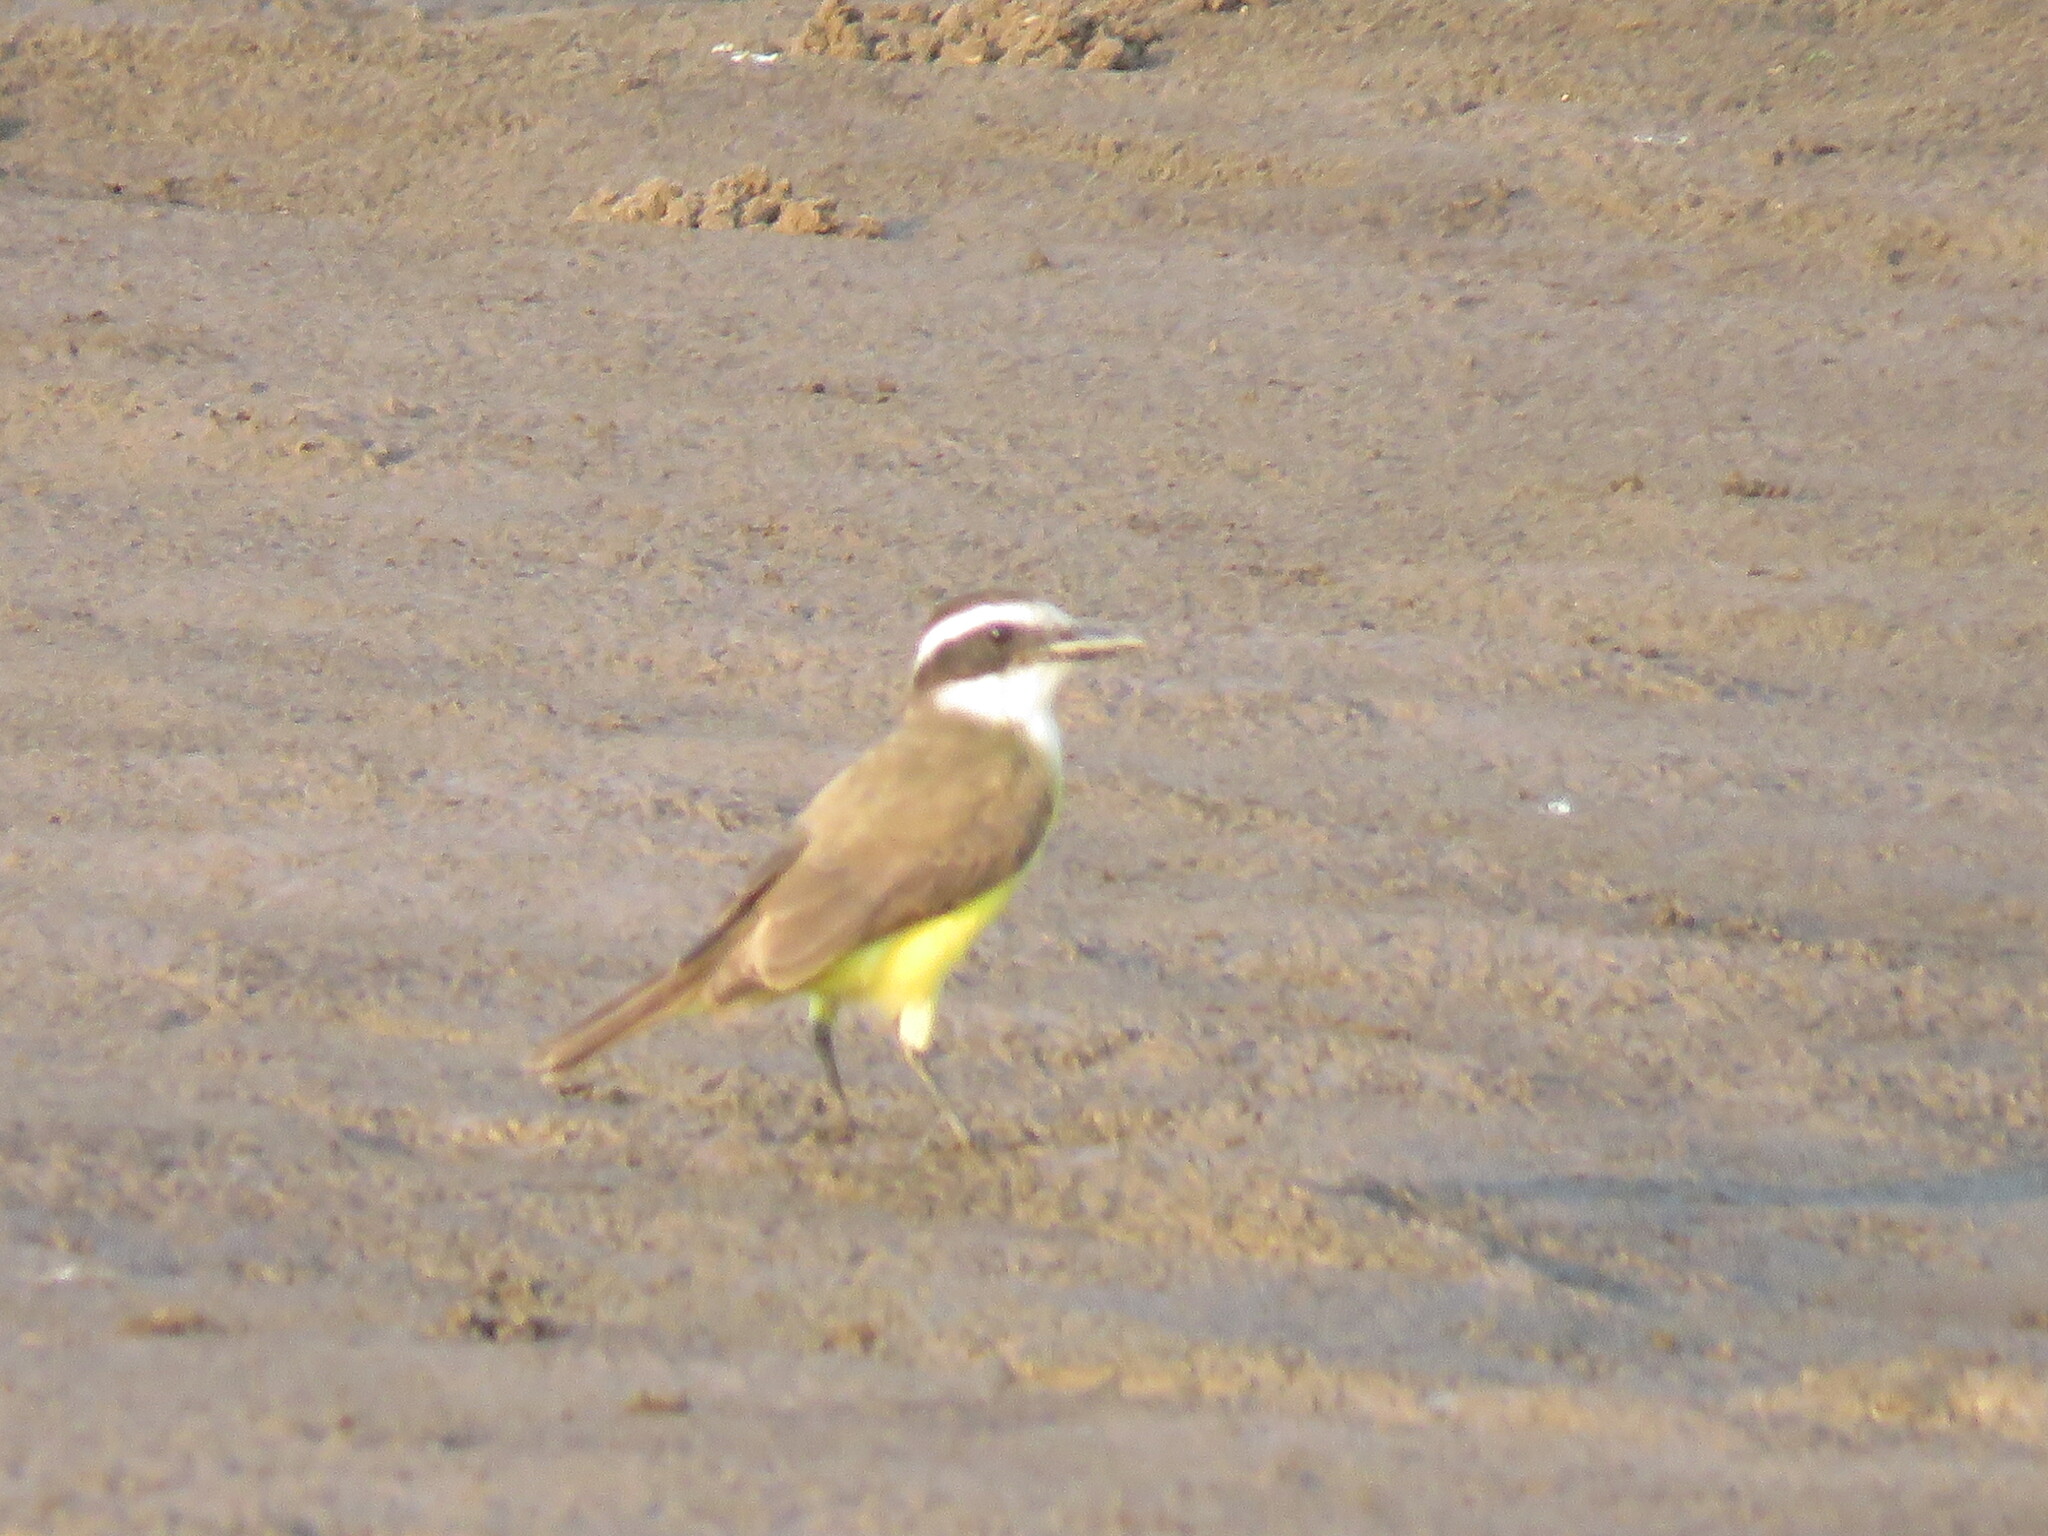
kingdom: Animalia
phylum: Chordata
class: Aves
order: Passeriformes
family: Tyrannidae
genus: Pitangus
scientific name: Pitangus sulphuratus
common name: Great kiskadee
